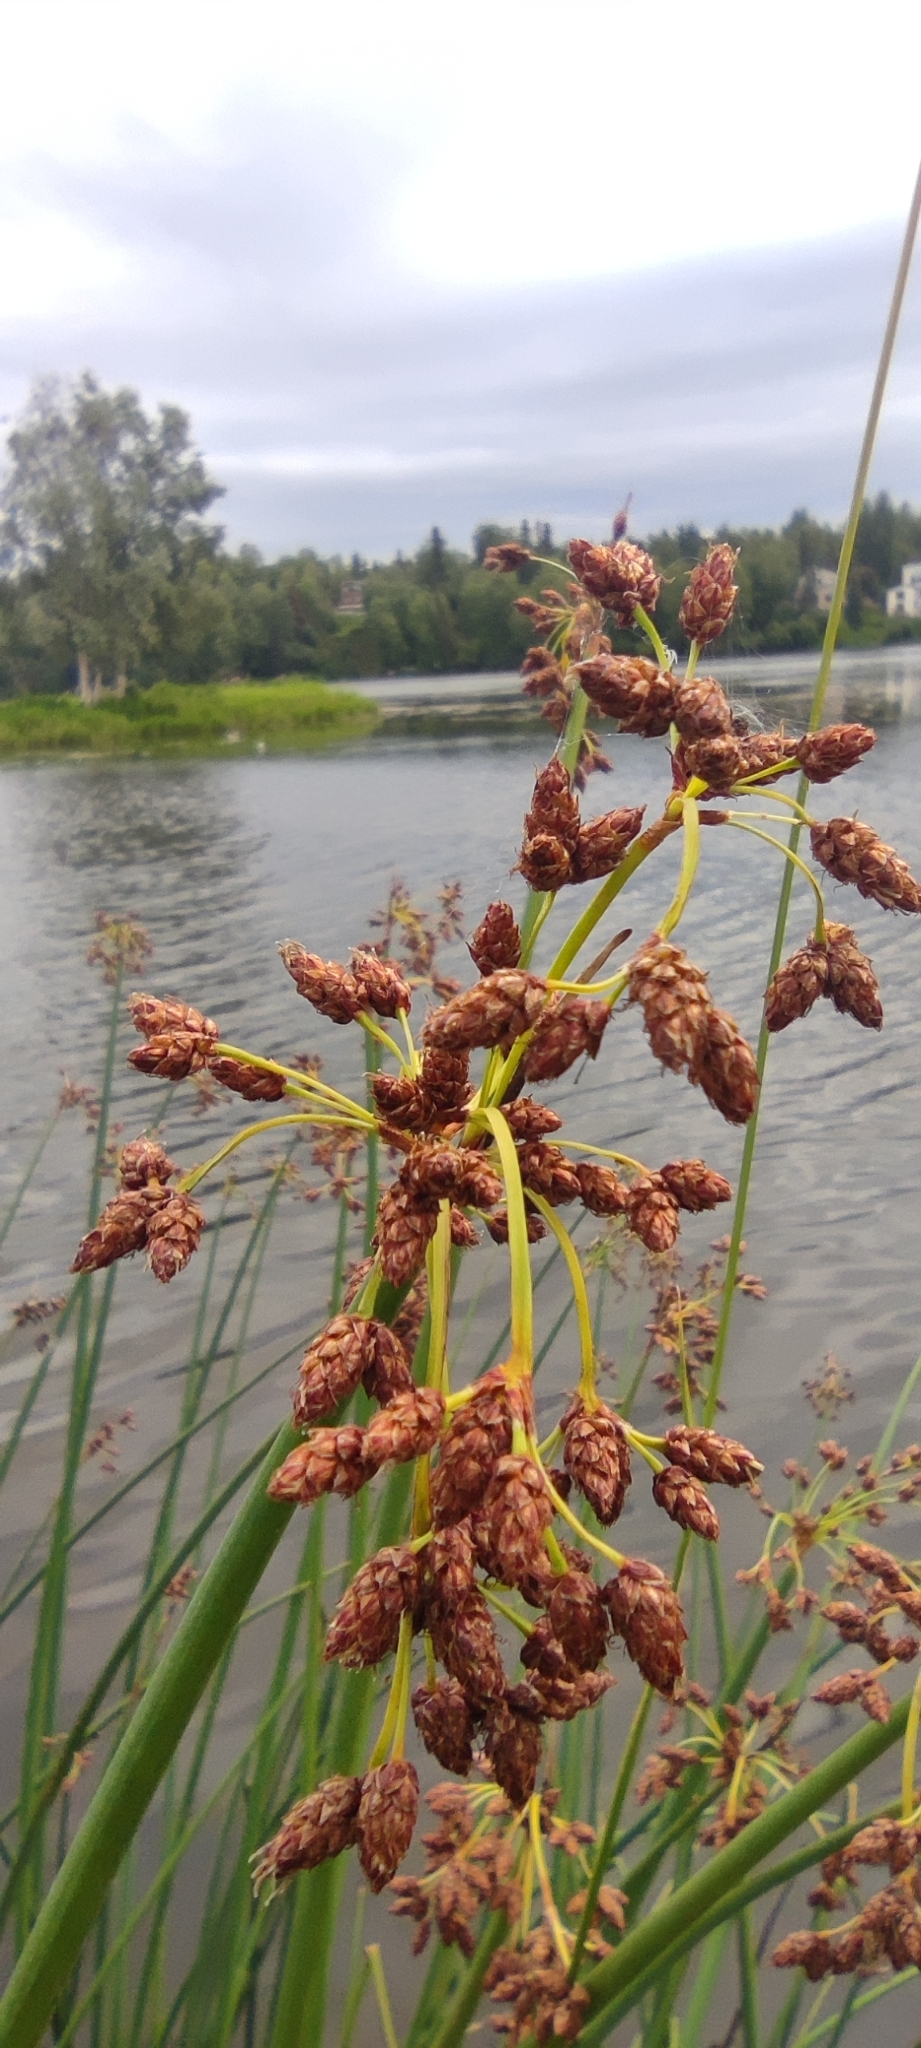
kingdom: Plantae
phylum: Tracheophyta
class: Liliopsida
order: Poales
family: Cyperaceae
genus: Schoenoplectus
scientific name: Schoenoplectus tabernaemontani
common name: Grey club-rush
